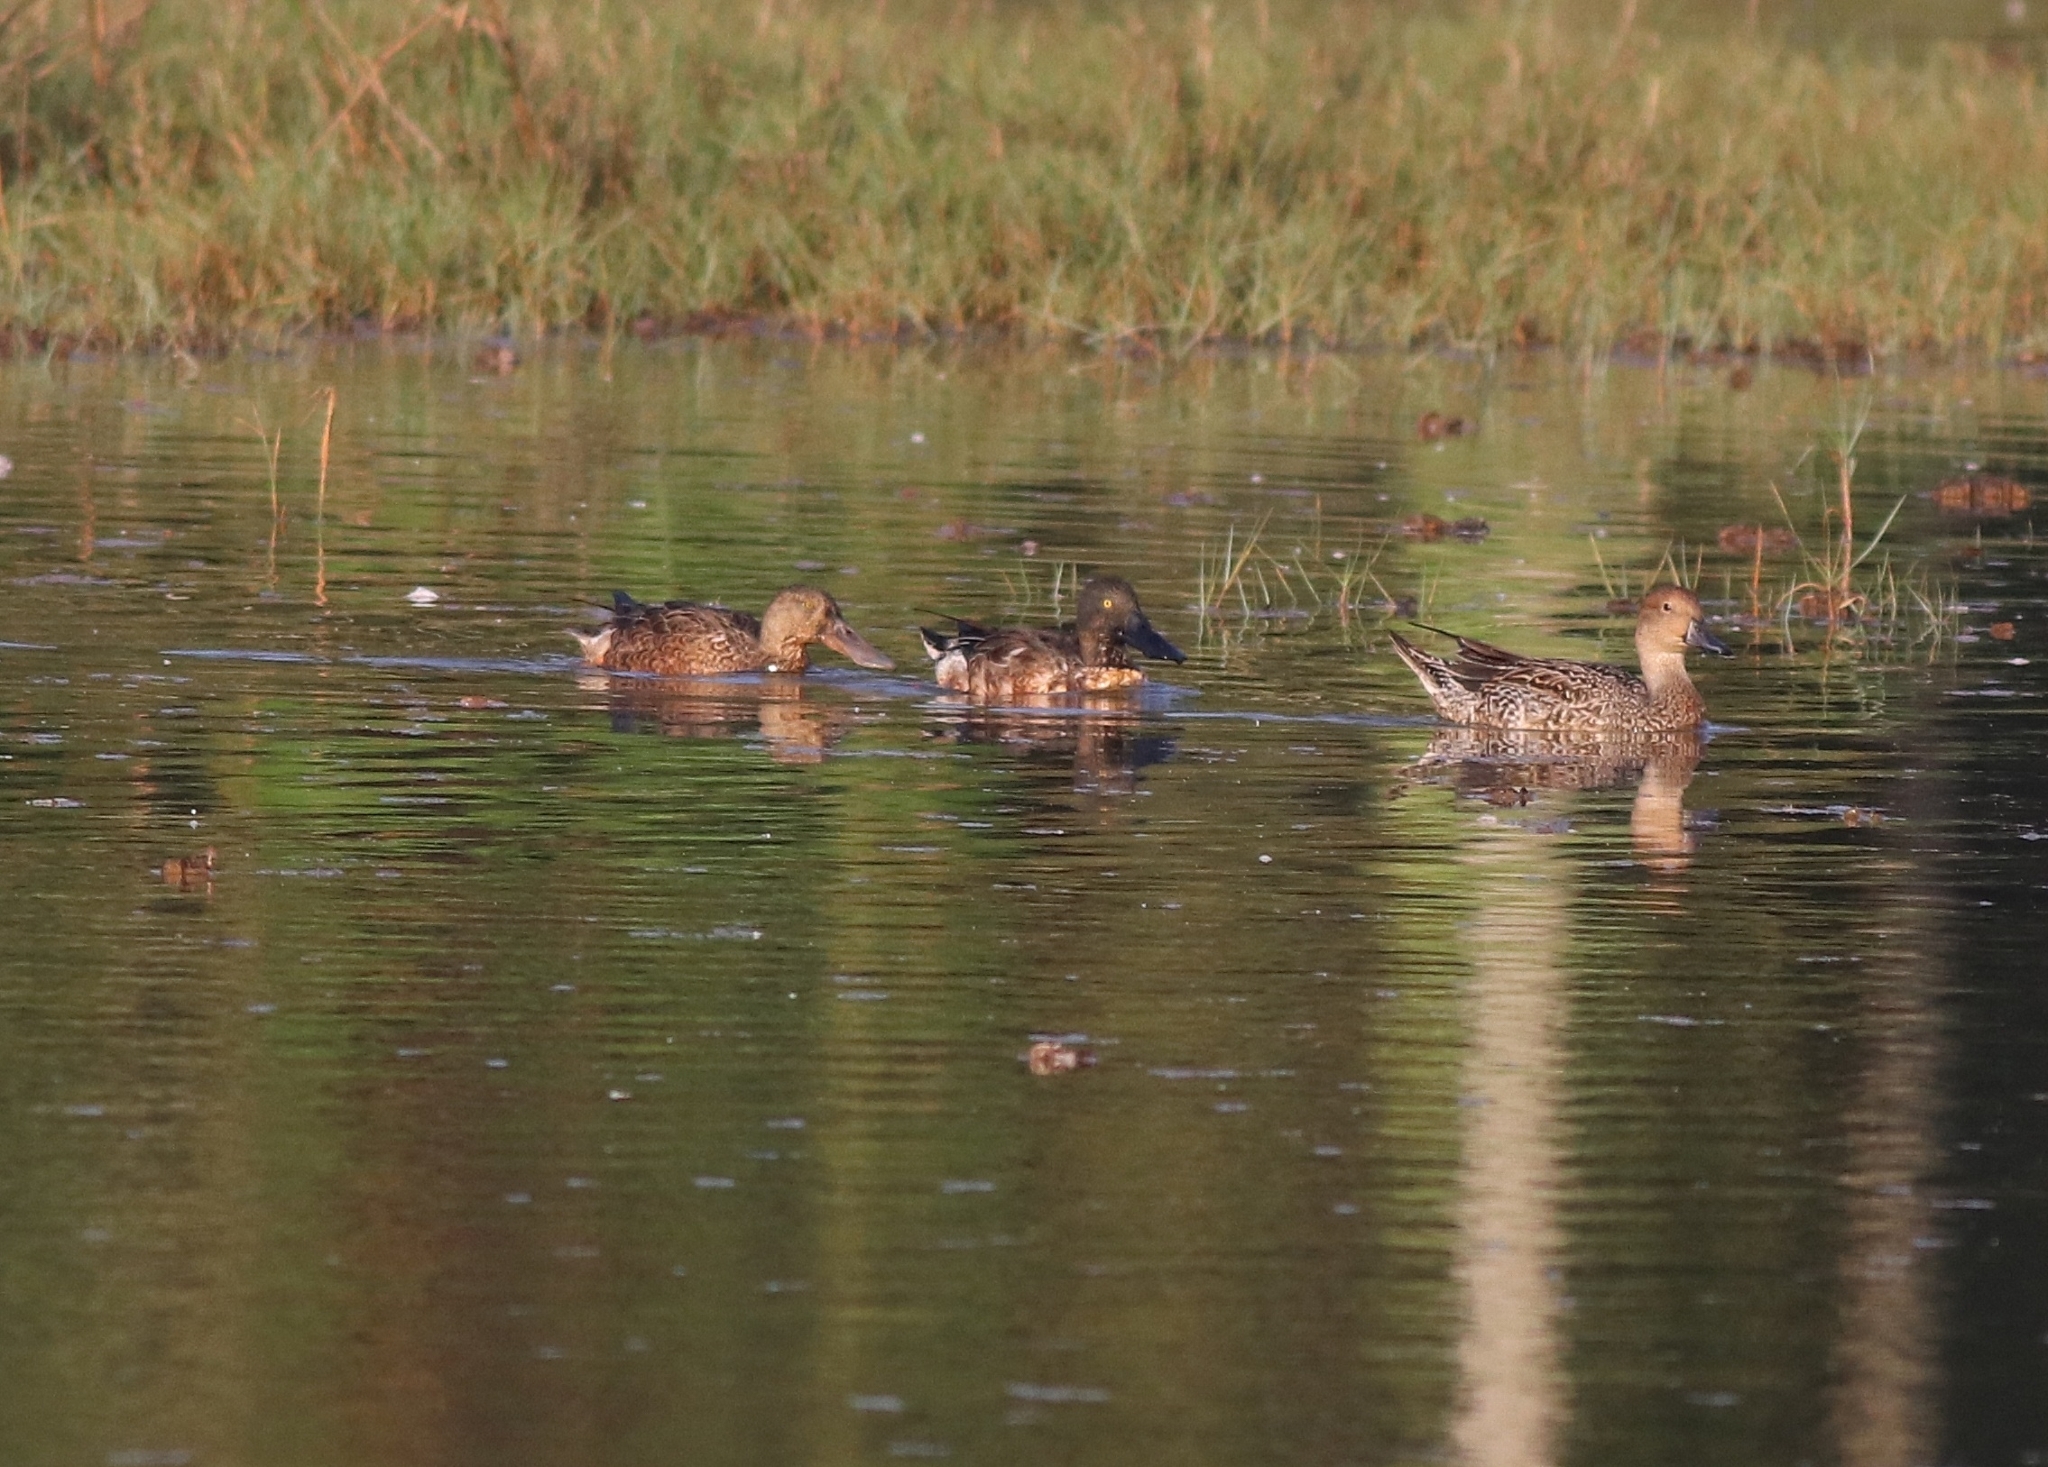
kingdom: Animalia
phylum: Chordata
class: Aves
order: Anseriformes
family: Anatidae
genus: Spatula
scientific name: Spatula clypeata
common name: Northern shoveler
